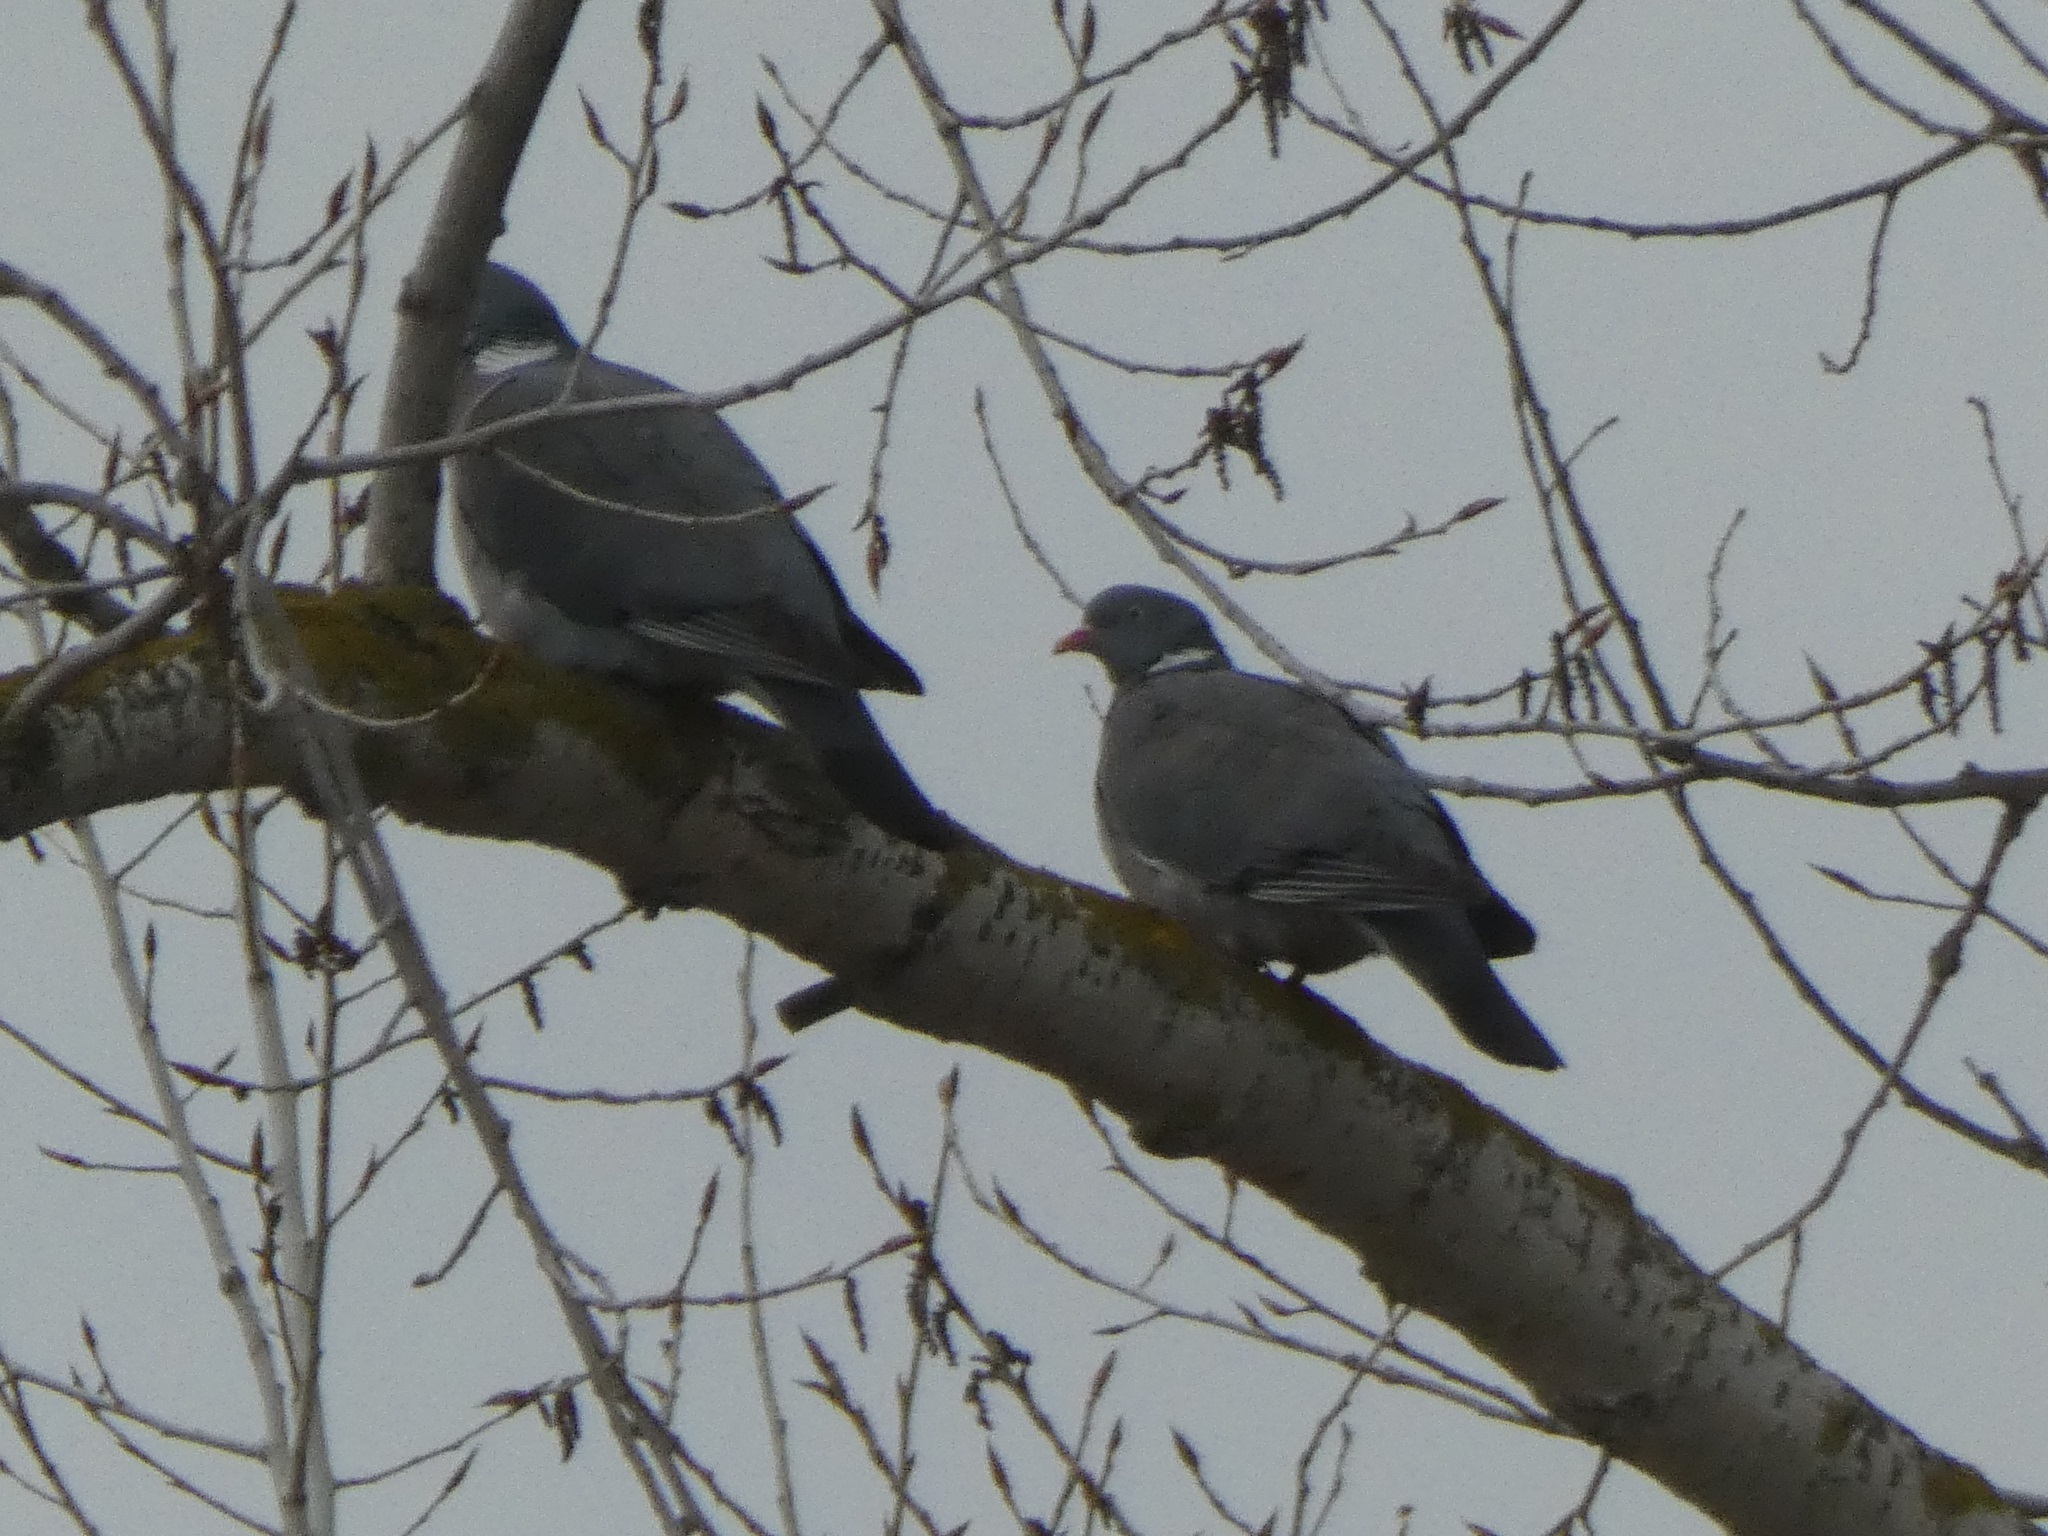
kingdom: Animalia
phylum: Chordata
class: Aves
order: Columbiformes
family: Columbidae
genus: Columba
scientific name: Columba palumbus
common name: Common wood pigeon
